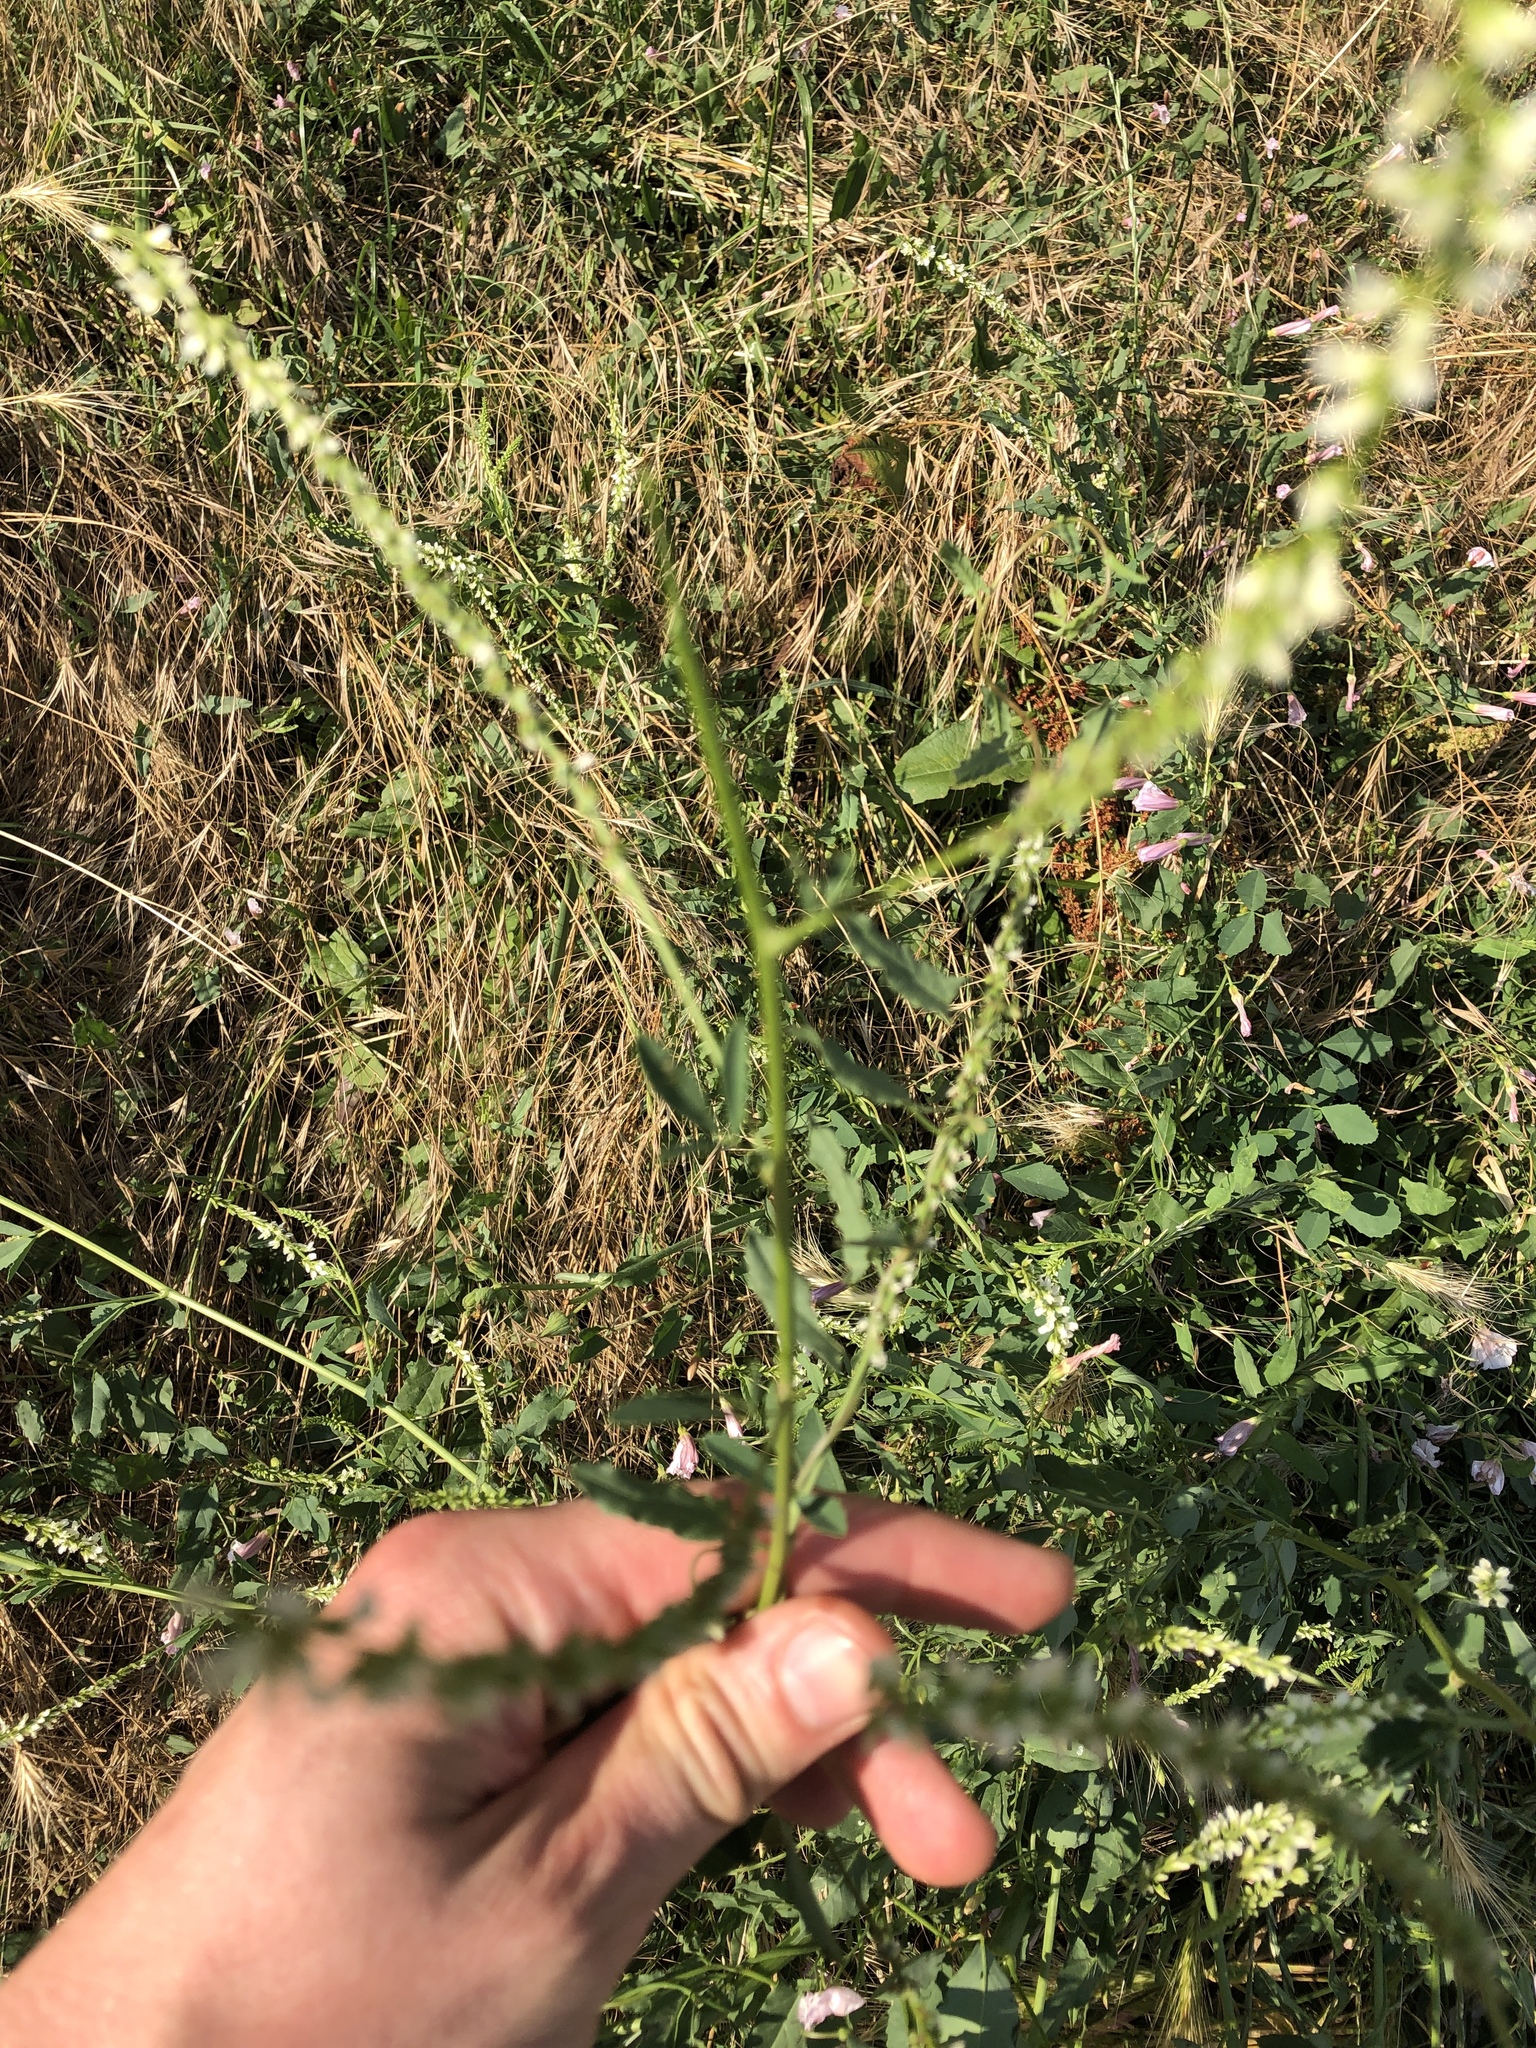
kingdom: Plantae
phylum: Tracheophyta
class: Magnoliopsida
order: Fabales
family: Fabaceae
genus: Melilotus
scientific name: Melilotus albus
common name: White melilot
